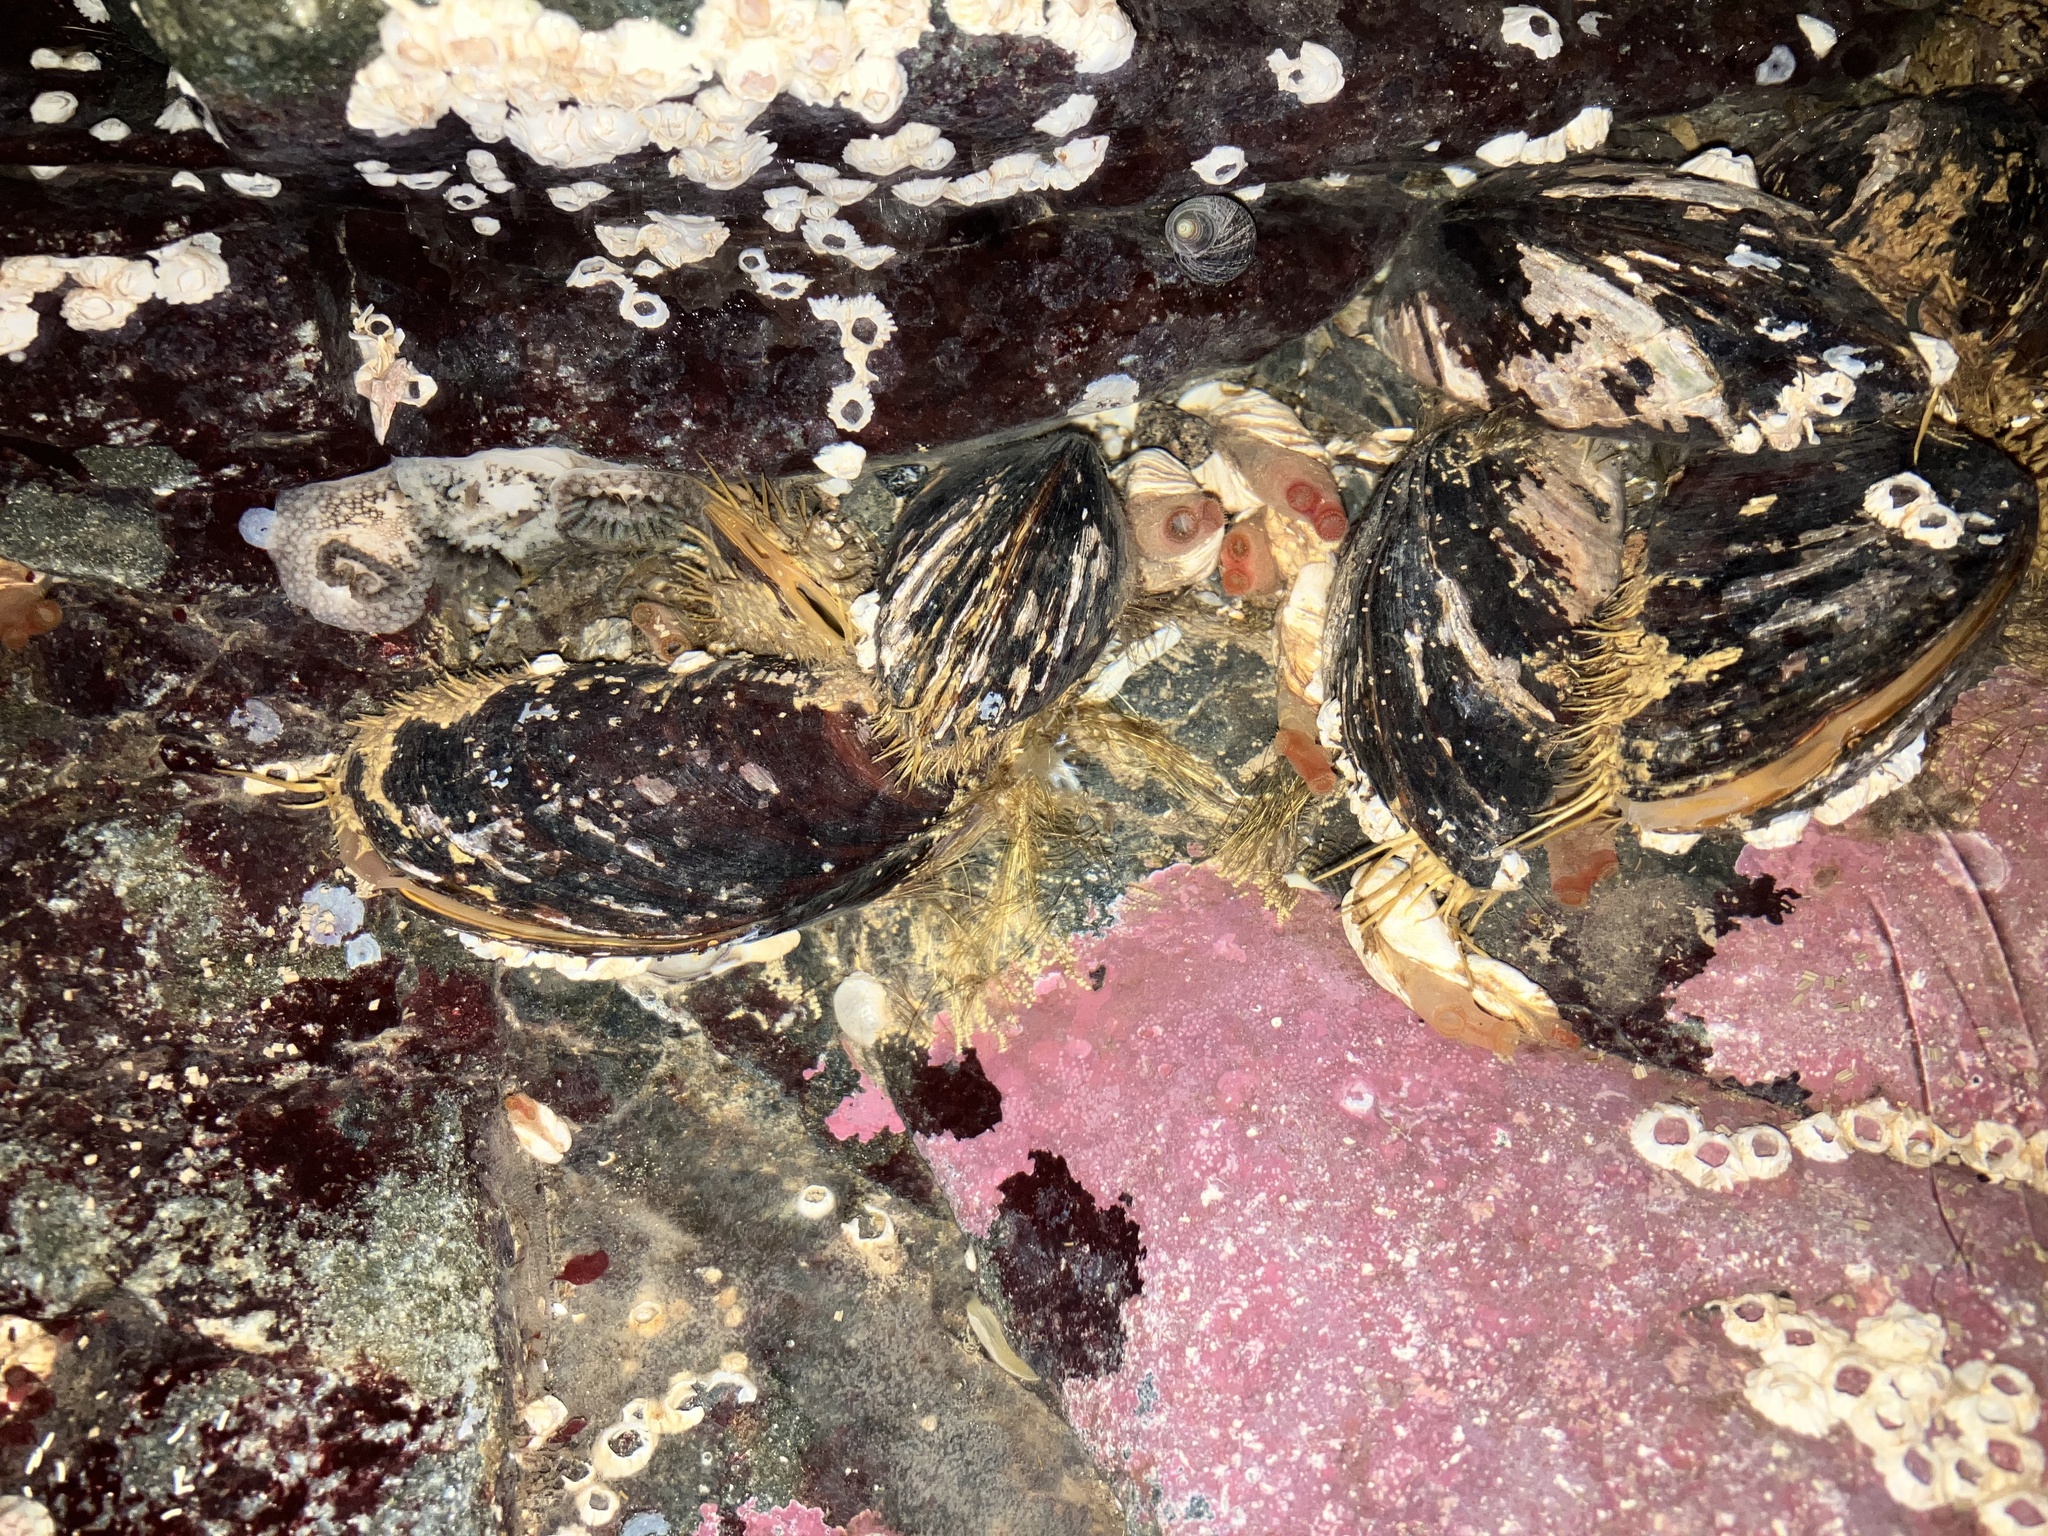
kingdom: Animalia
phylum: Mollusca
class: Bivalvia
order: Adapedonta
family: Hiatellidae
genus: Hiatella
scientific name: Hiatella arctica
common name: Arctic hiatella
